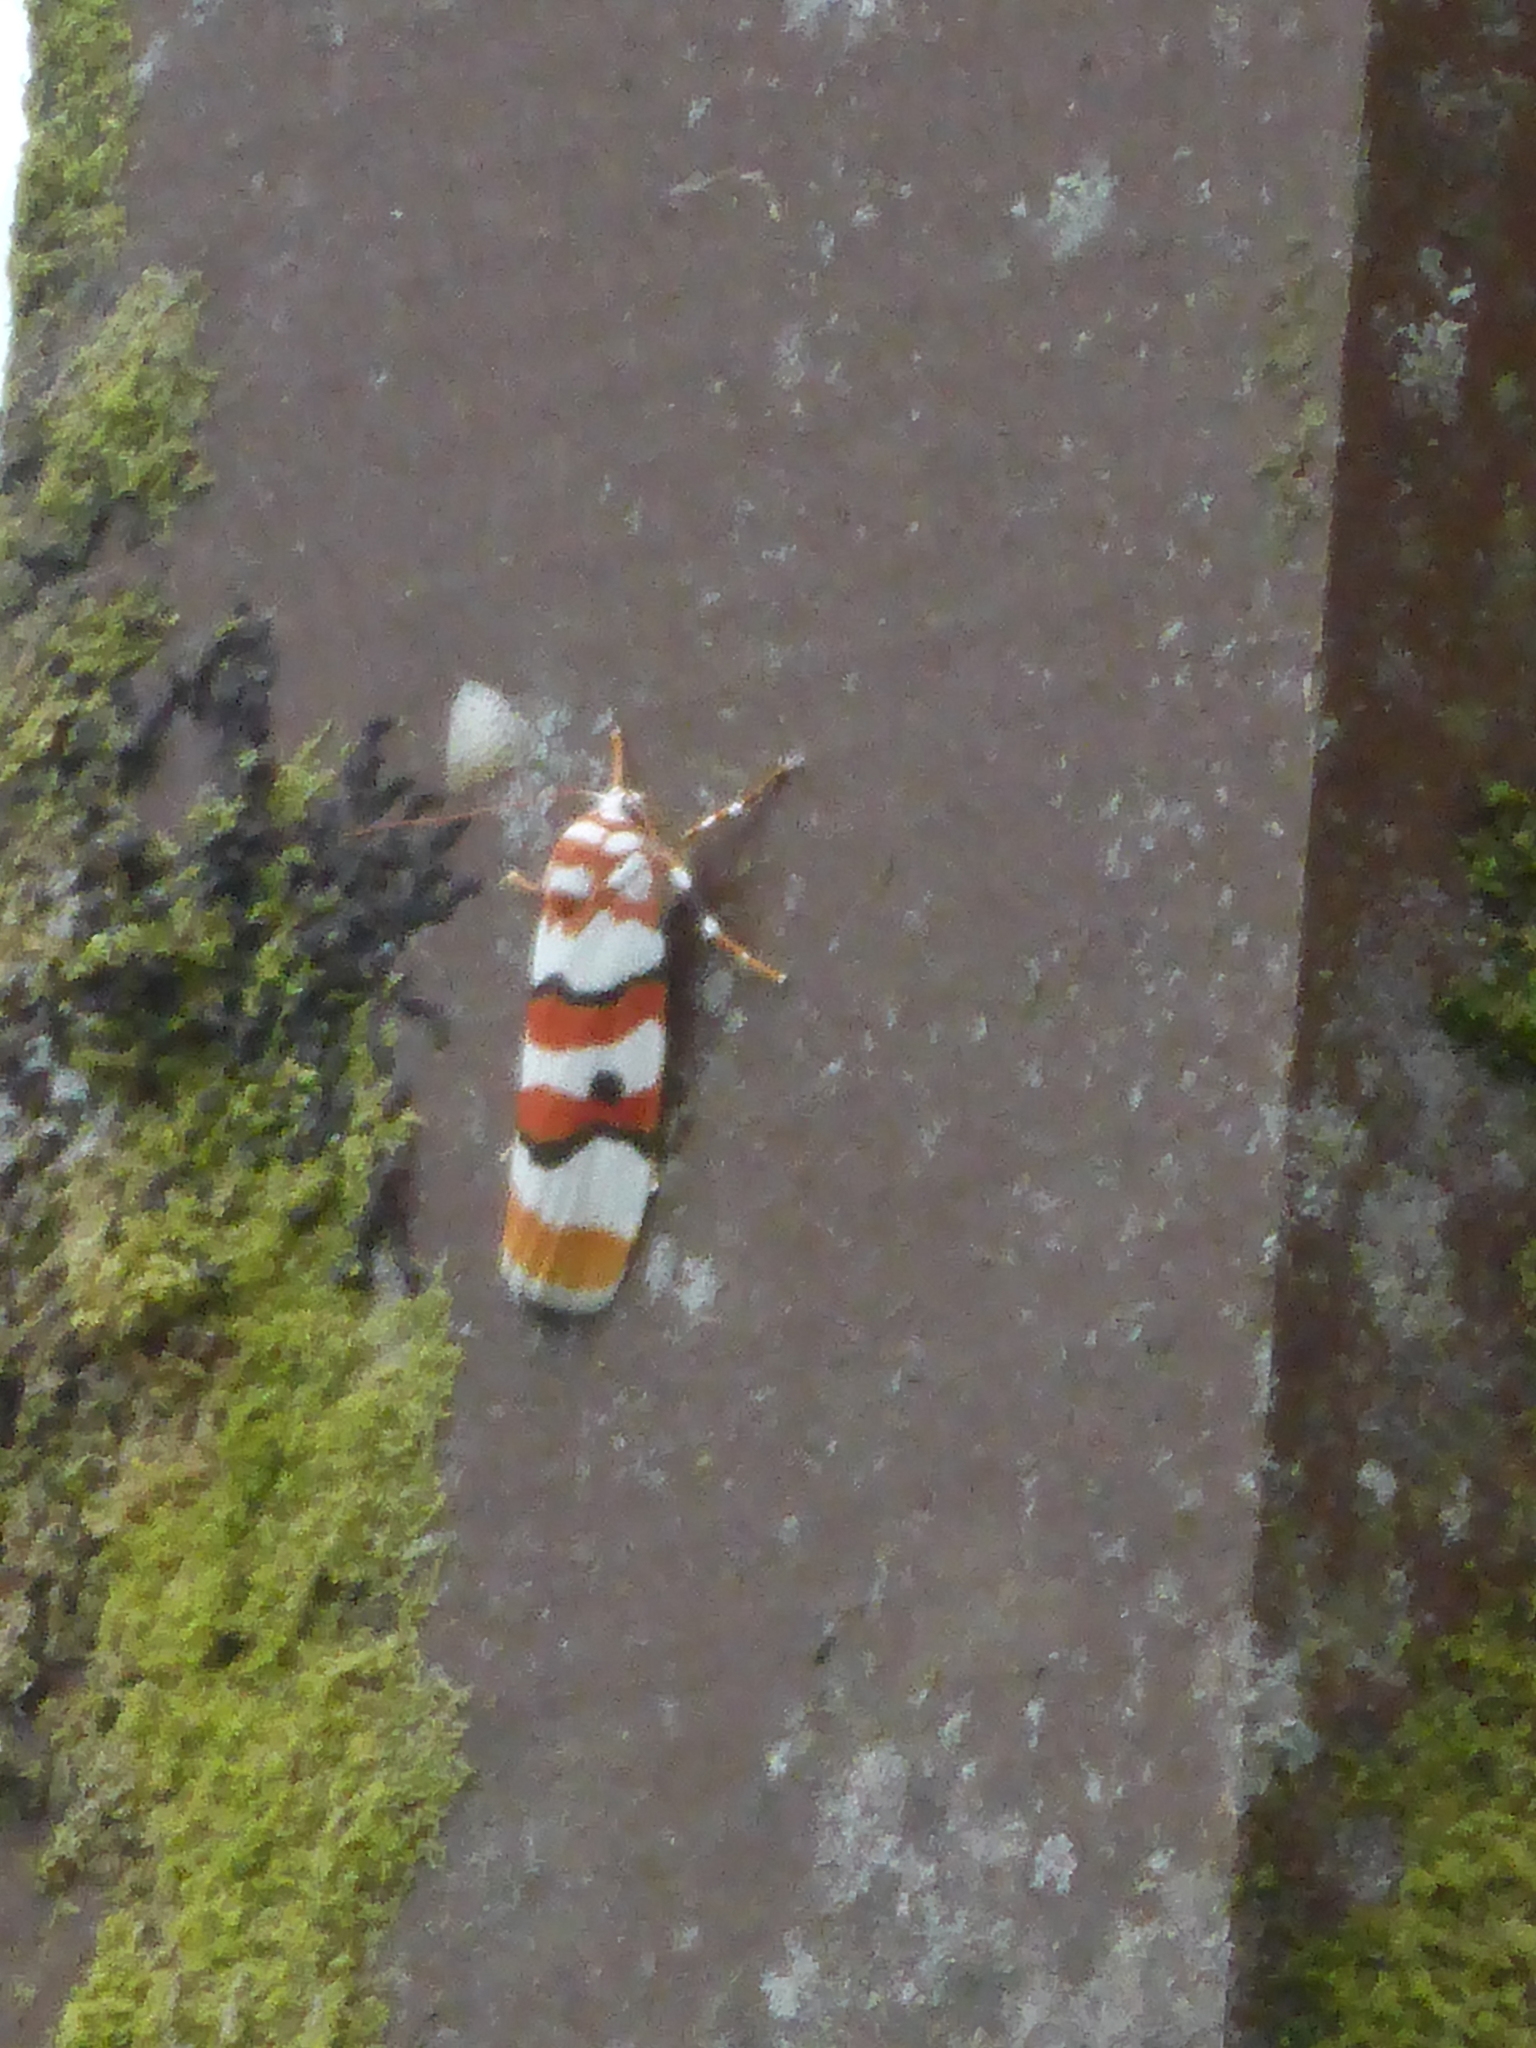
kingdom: Animalia
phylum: Arthropoda
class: Insecta
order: Lepidoptera
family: Erebidae
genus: Cyana
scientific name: Cyana malayensis
